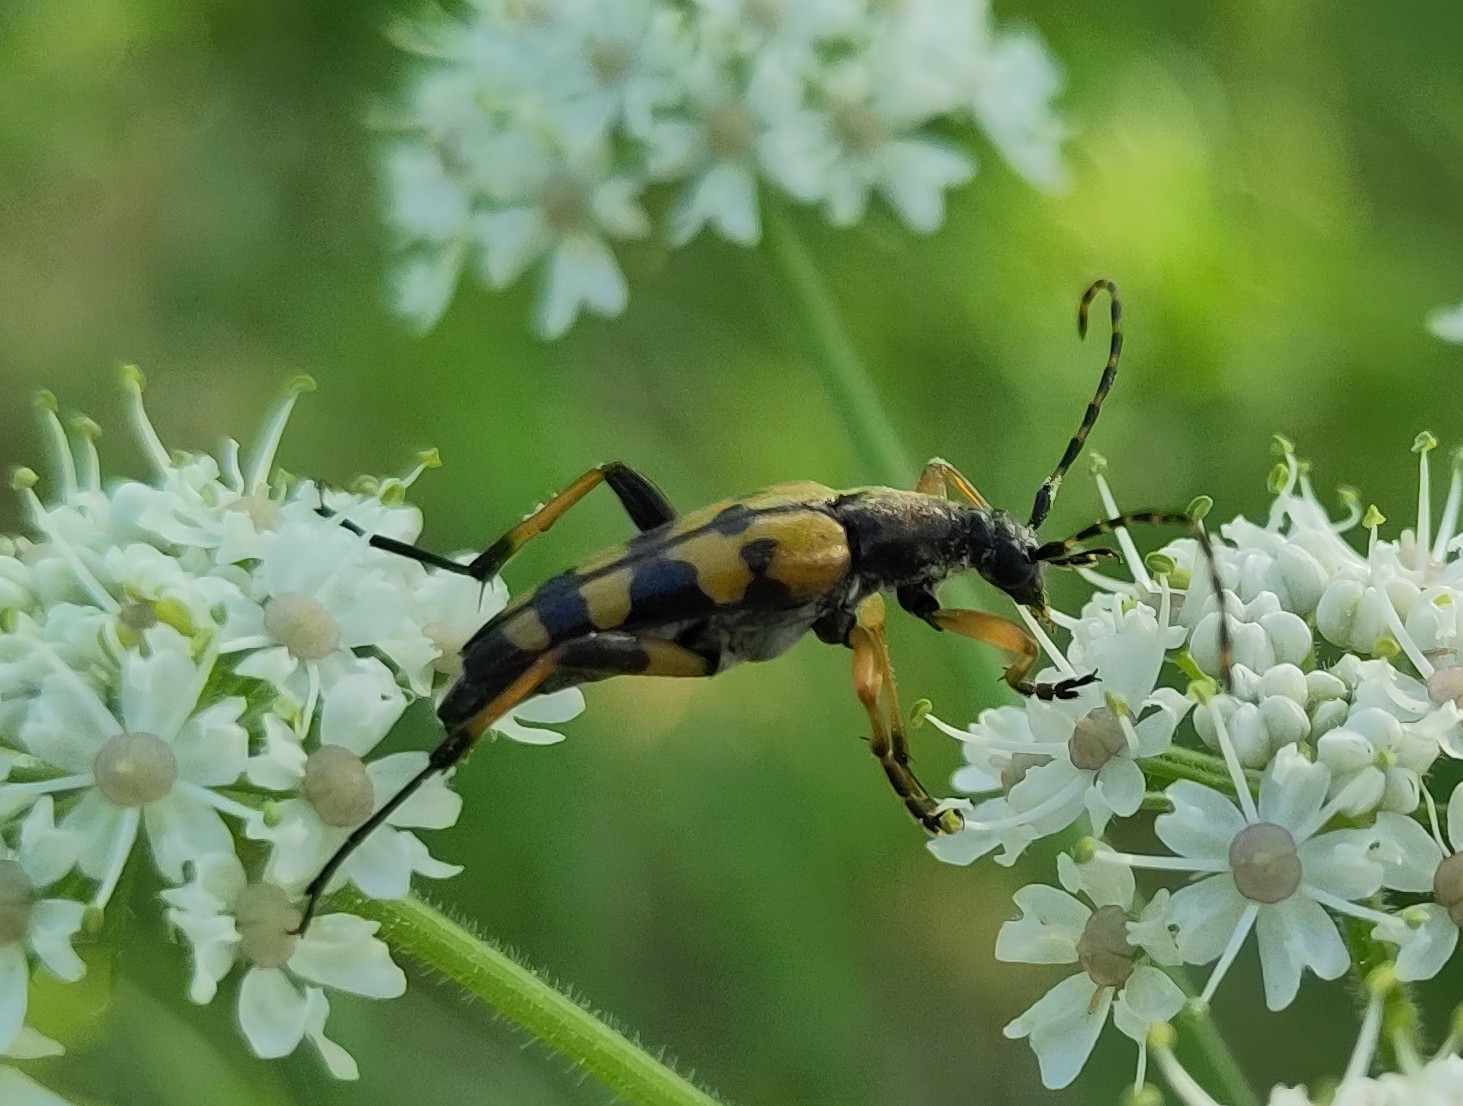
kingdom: Animalia
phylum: Arthropoda
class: Insecta
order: Coleoptera
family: Cerambycidae
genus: Rutpela
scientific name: Rutpela maculata
